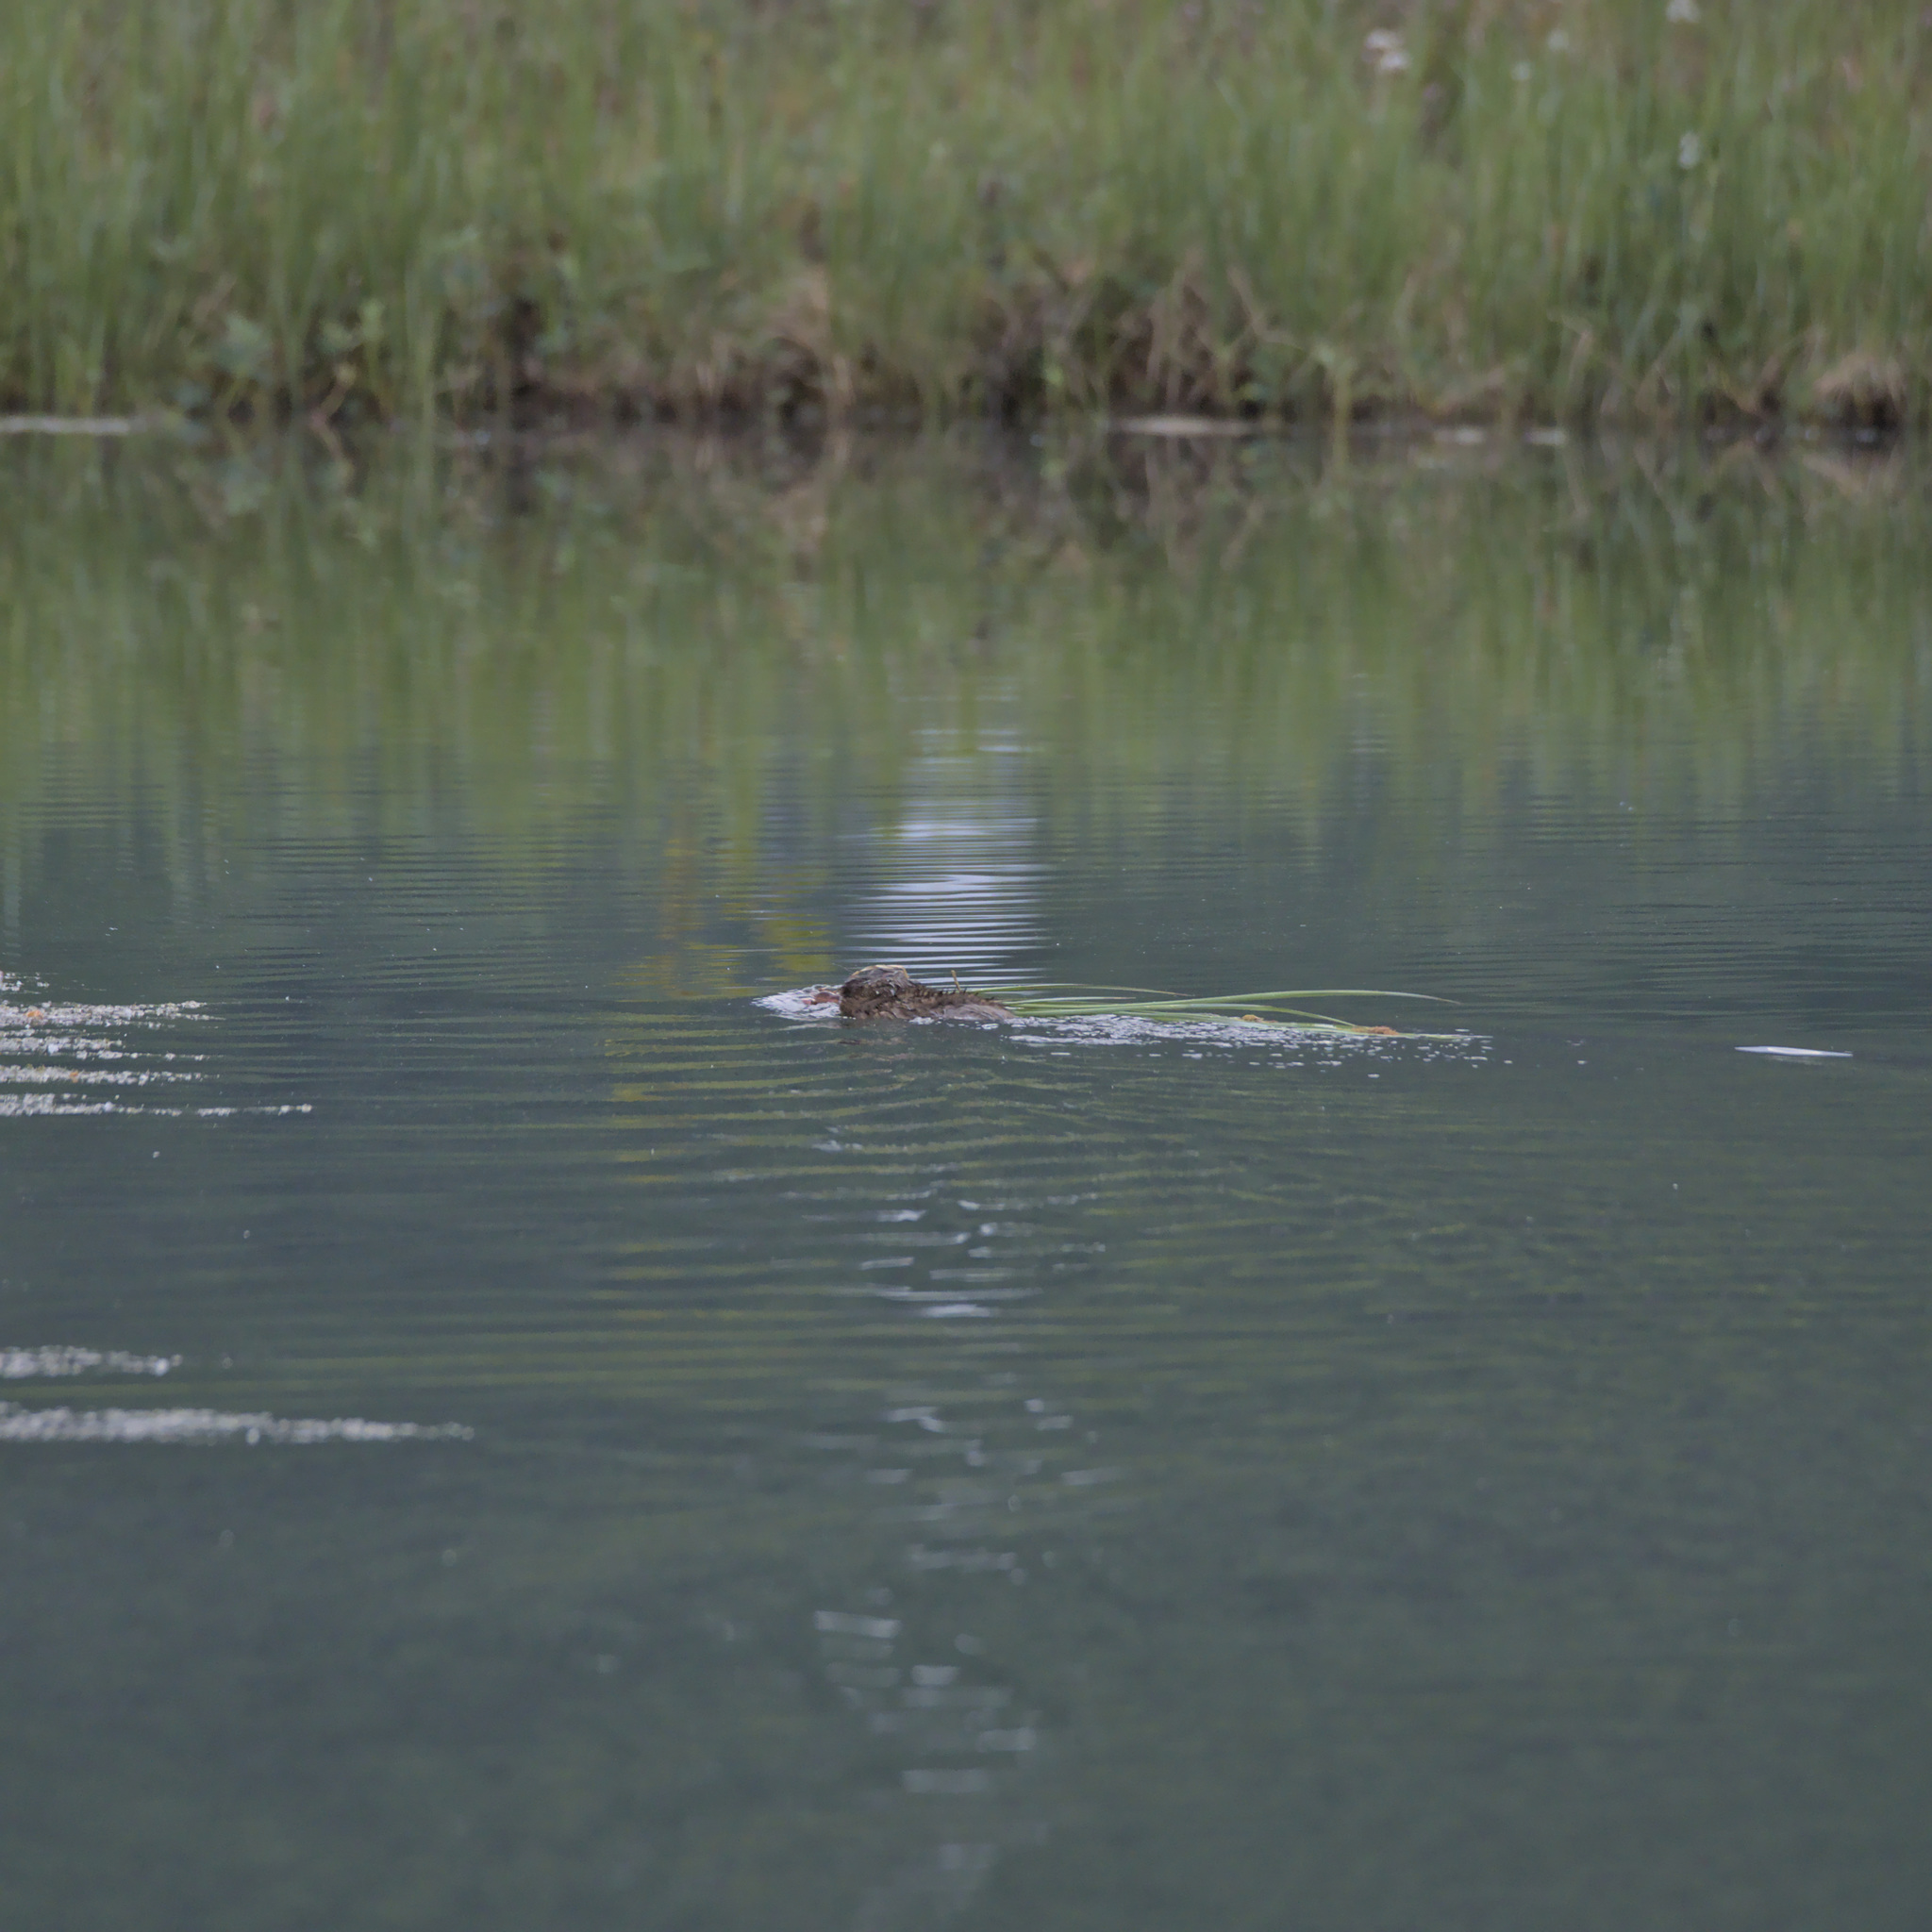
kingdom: Animalia
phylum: Chordata
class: Mammalia
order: Rodentia
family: Cricetidae
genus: Ondatra
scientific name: Ondatra zibethicus
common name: Muskrat
